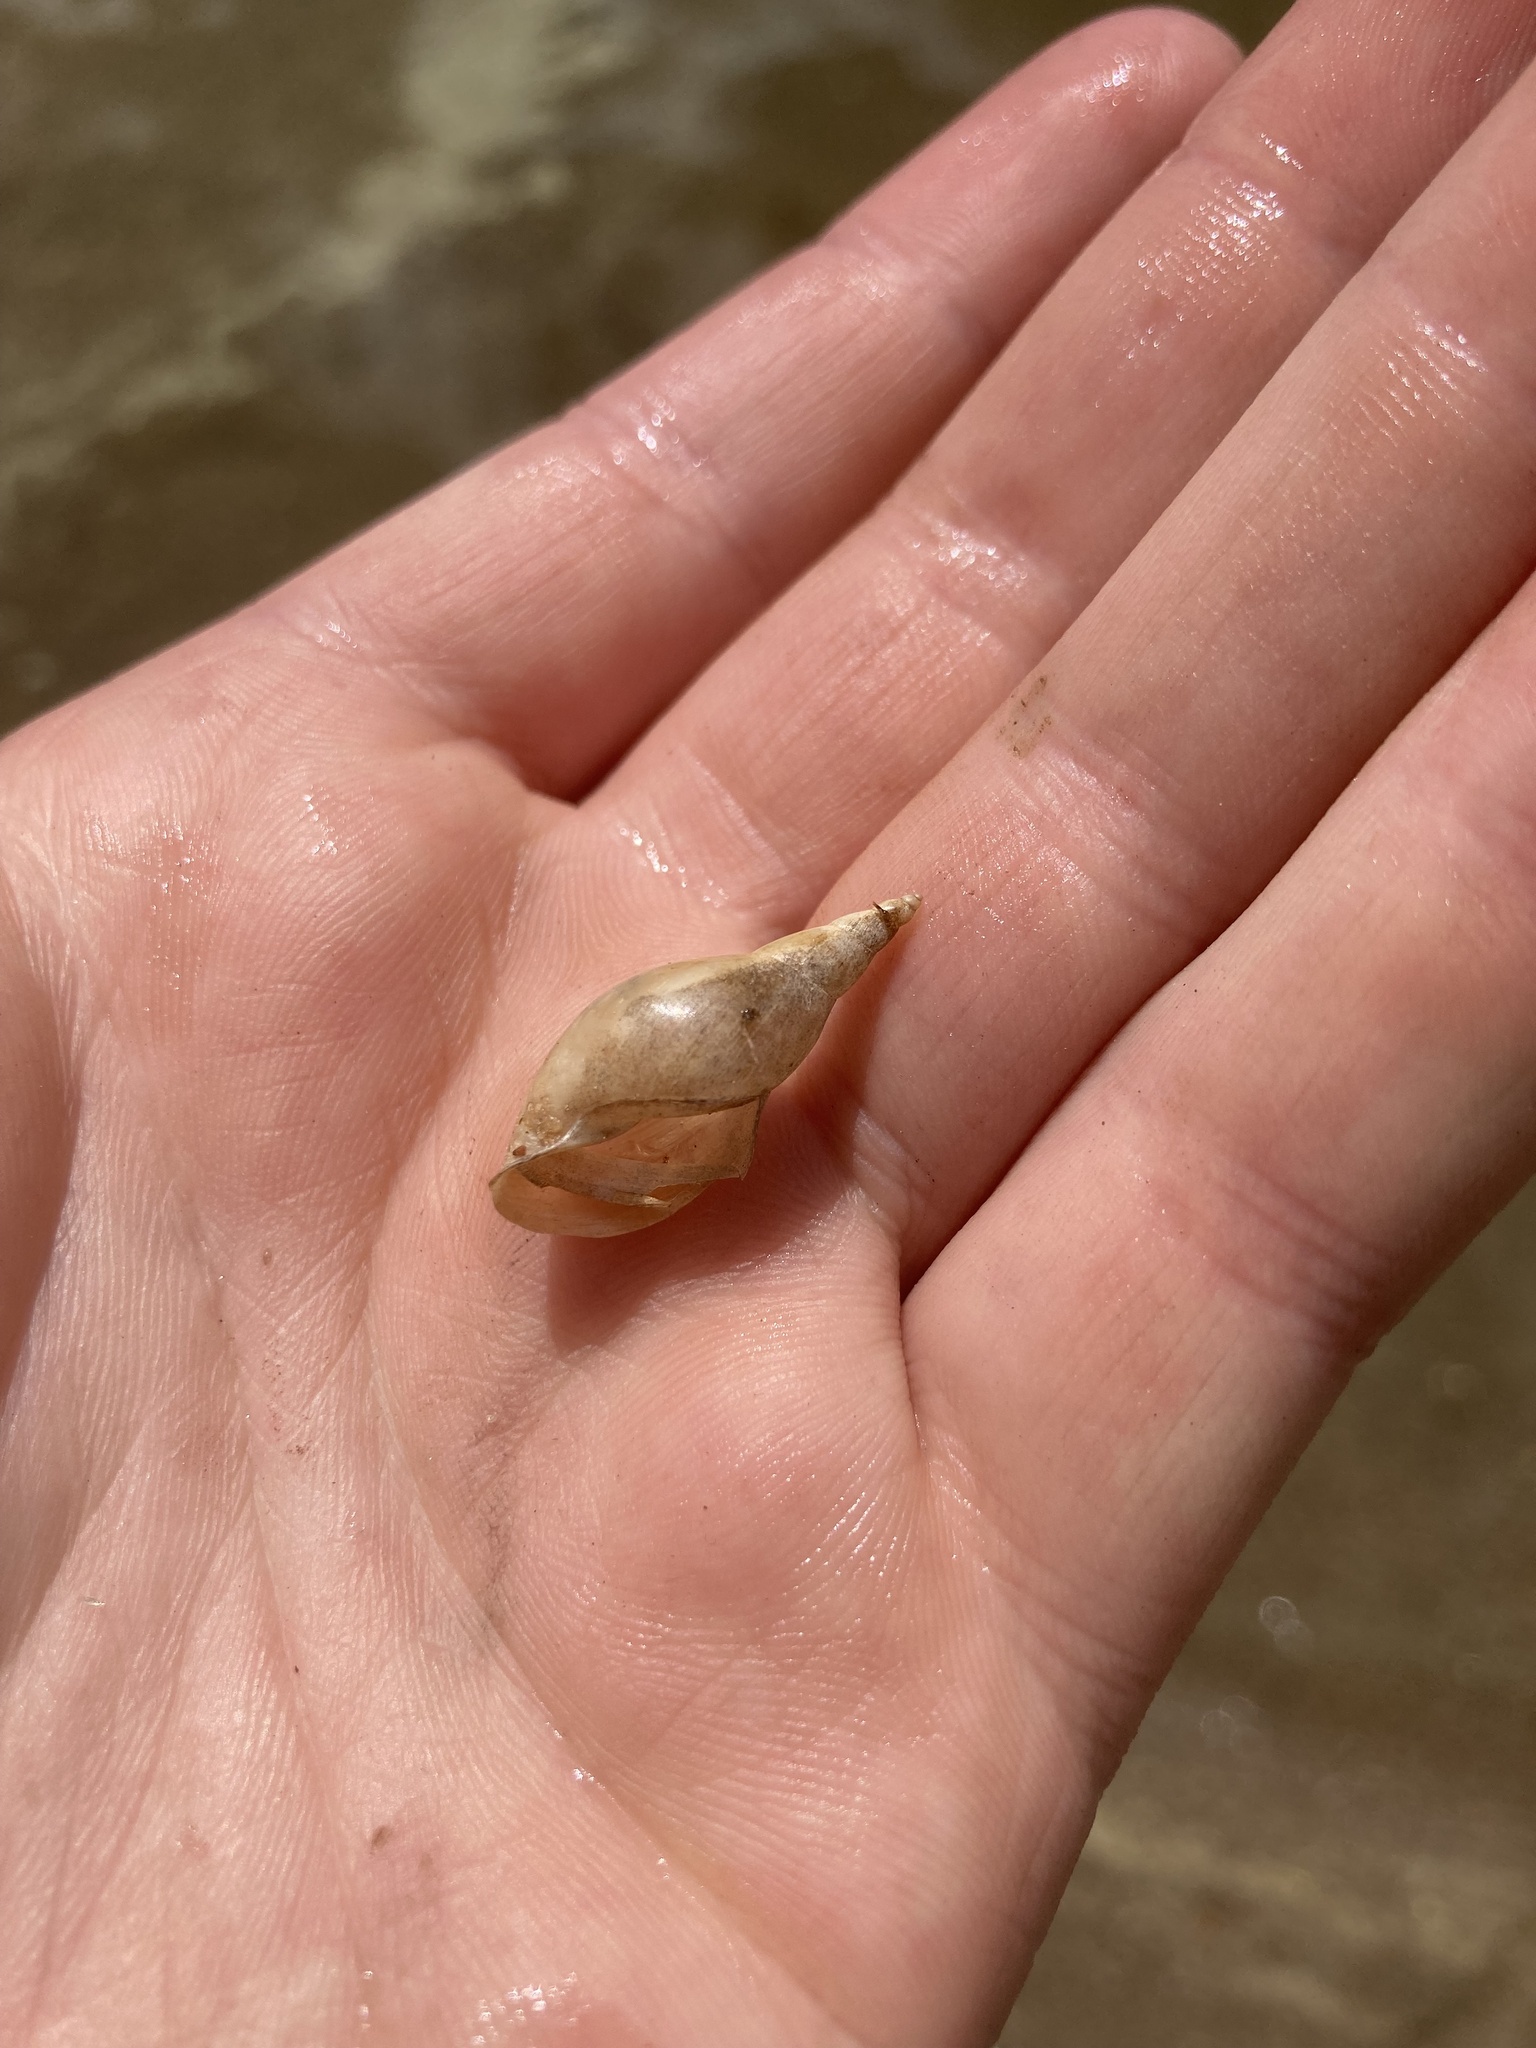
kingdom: Animalia
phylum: Mollusca
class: Gastropoda
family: Lymnaeidae
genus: Lymnaea
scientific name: Lymnaea stagnalis
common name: Great pond snail
